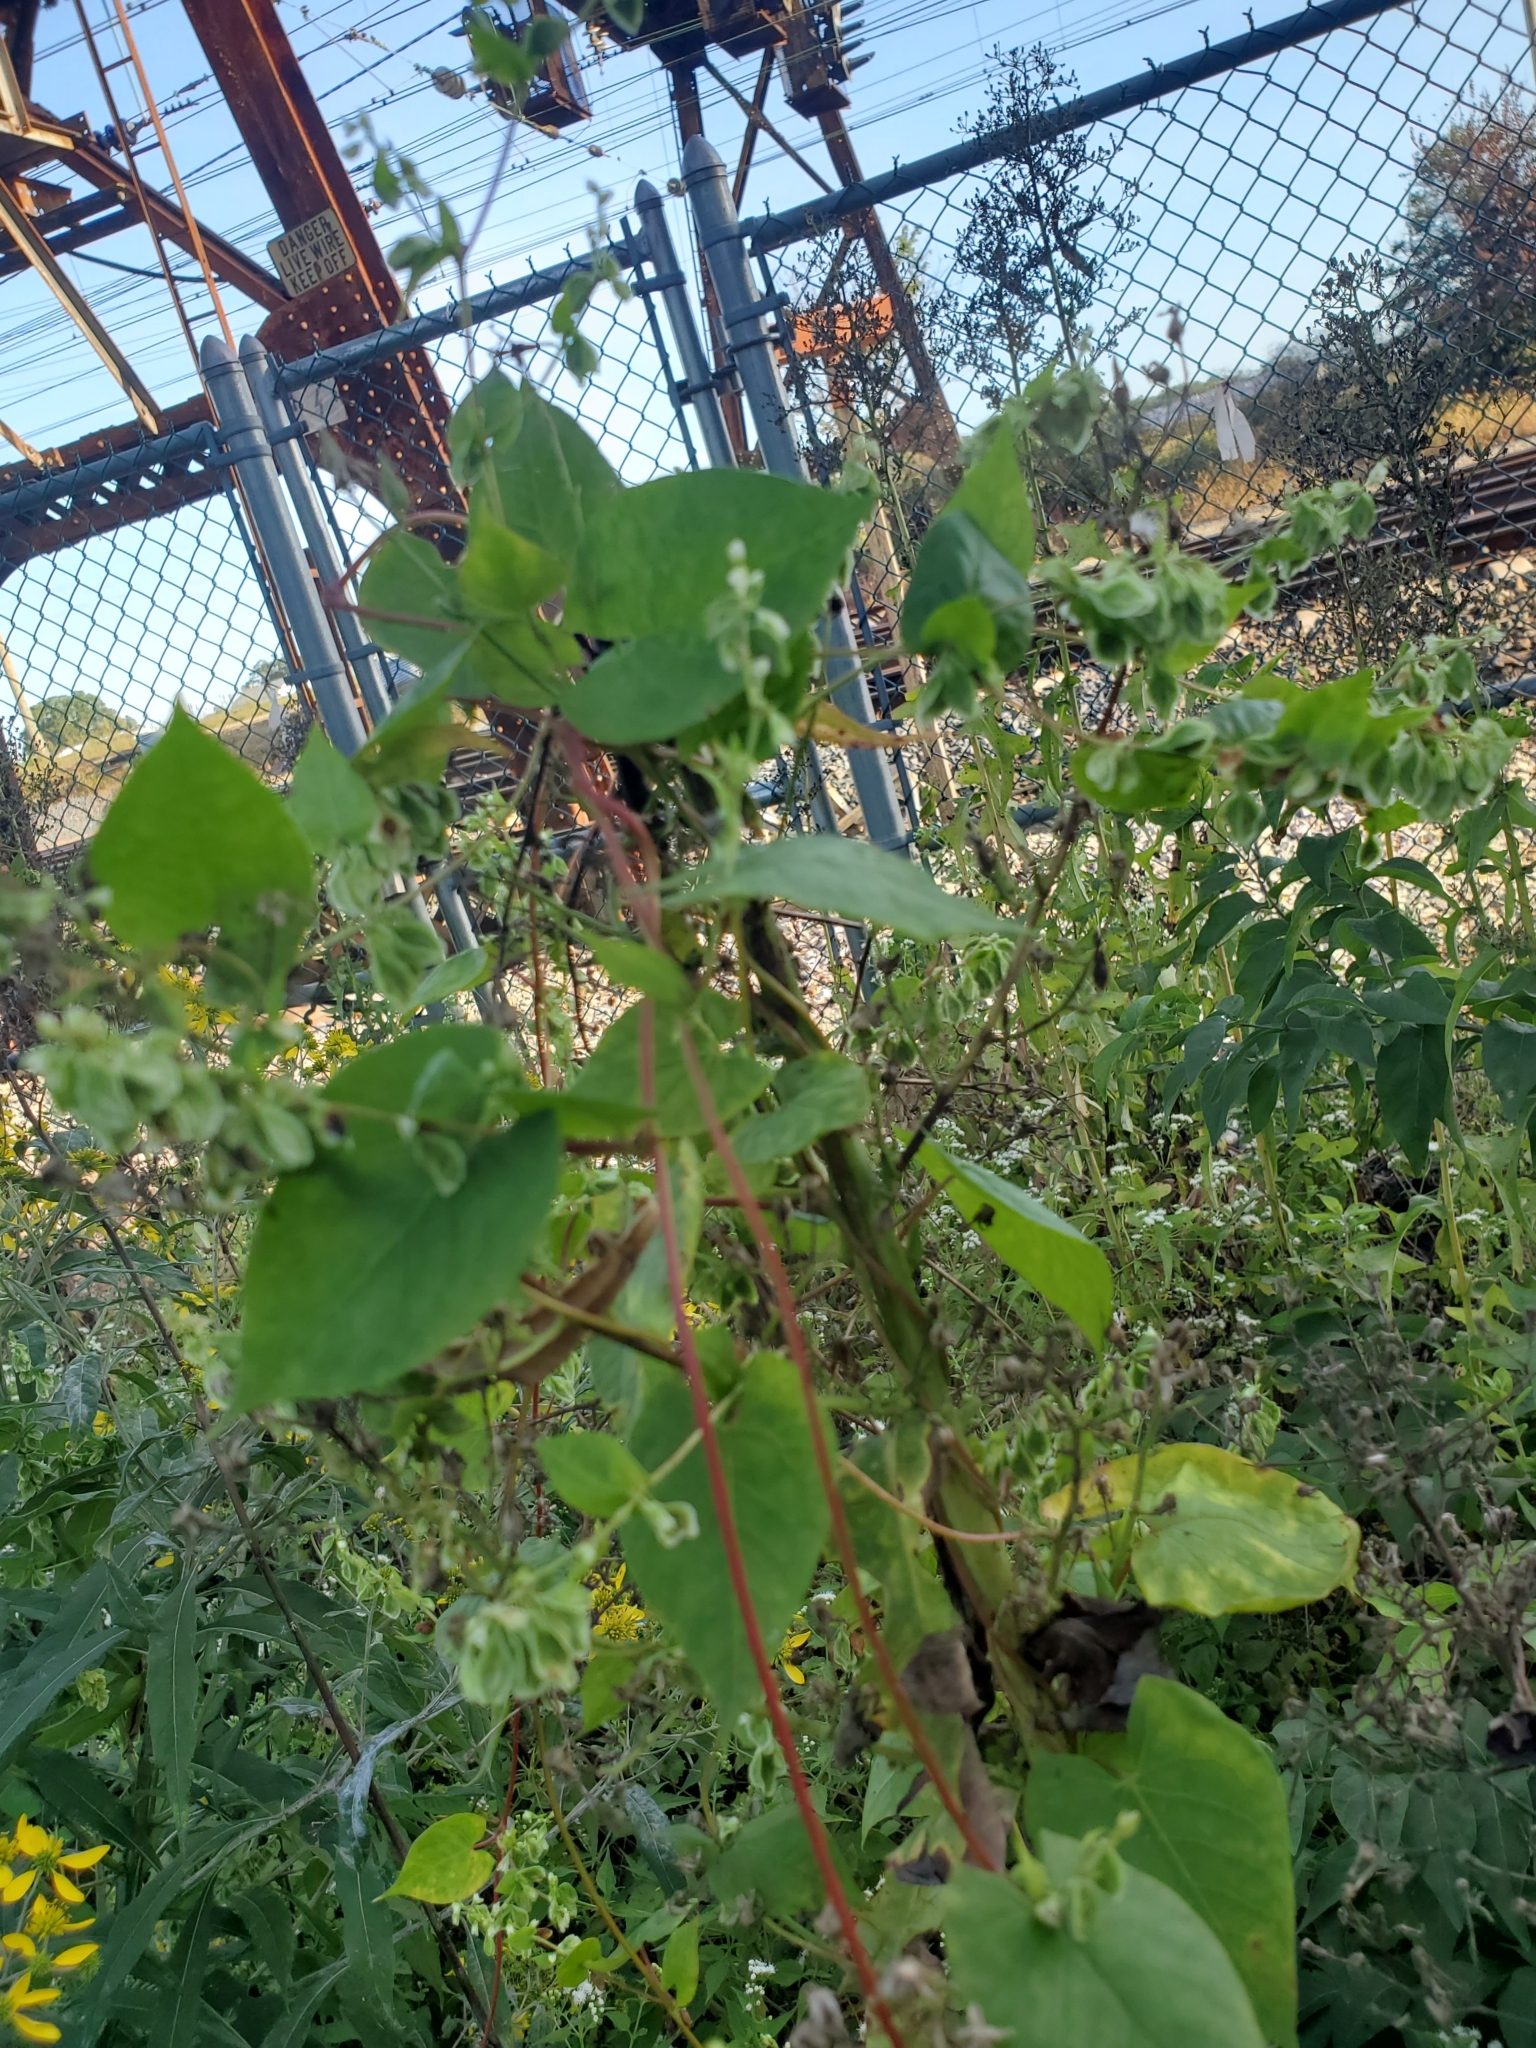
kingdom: Plantae
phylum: Tracheophyta
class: Magnoliopsida
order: Caryophyllales
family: Polygonaceae
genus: Fallopia
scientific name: Fallopia scandens
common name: Climbing false buckwheat
